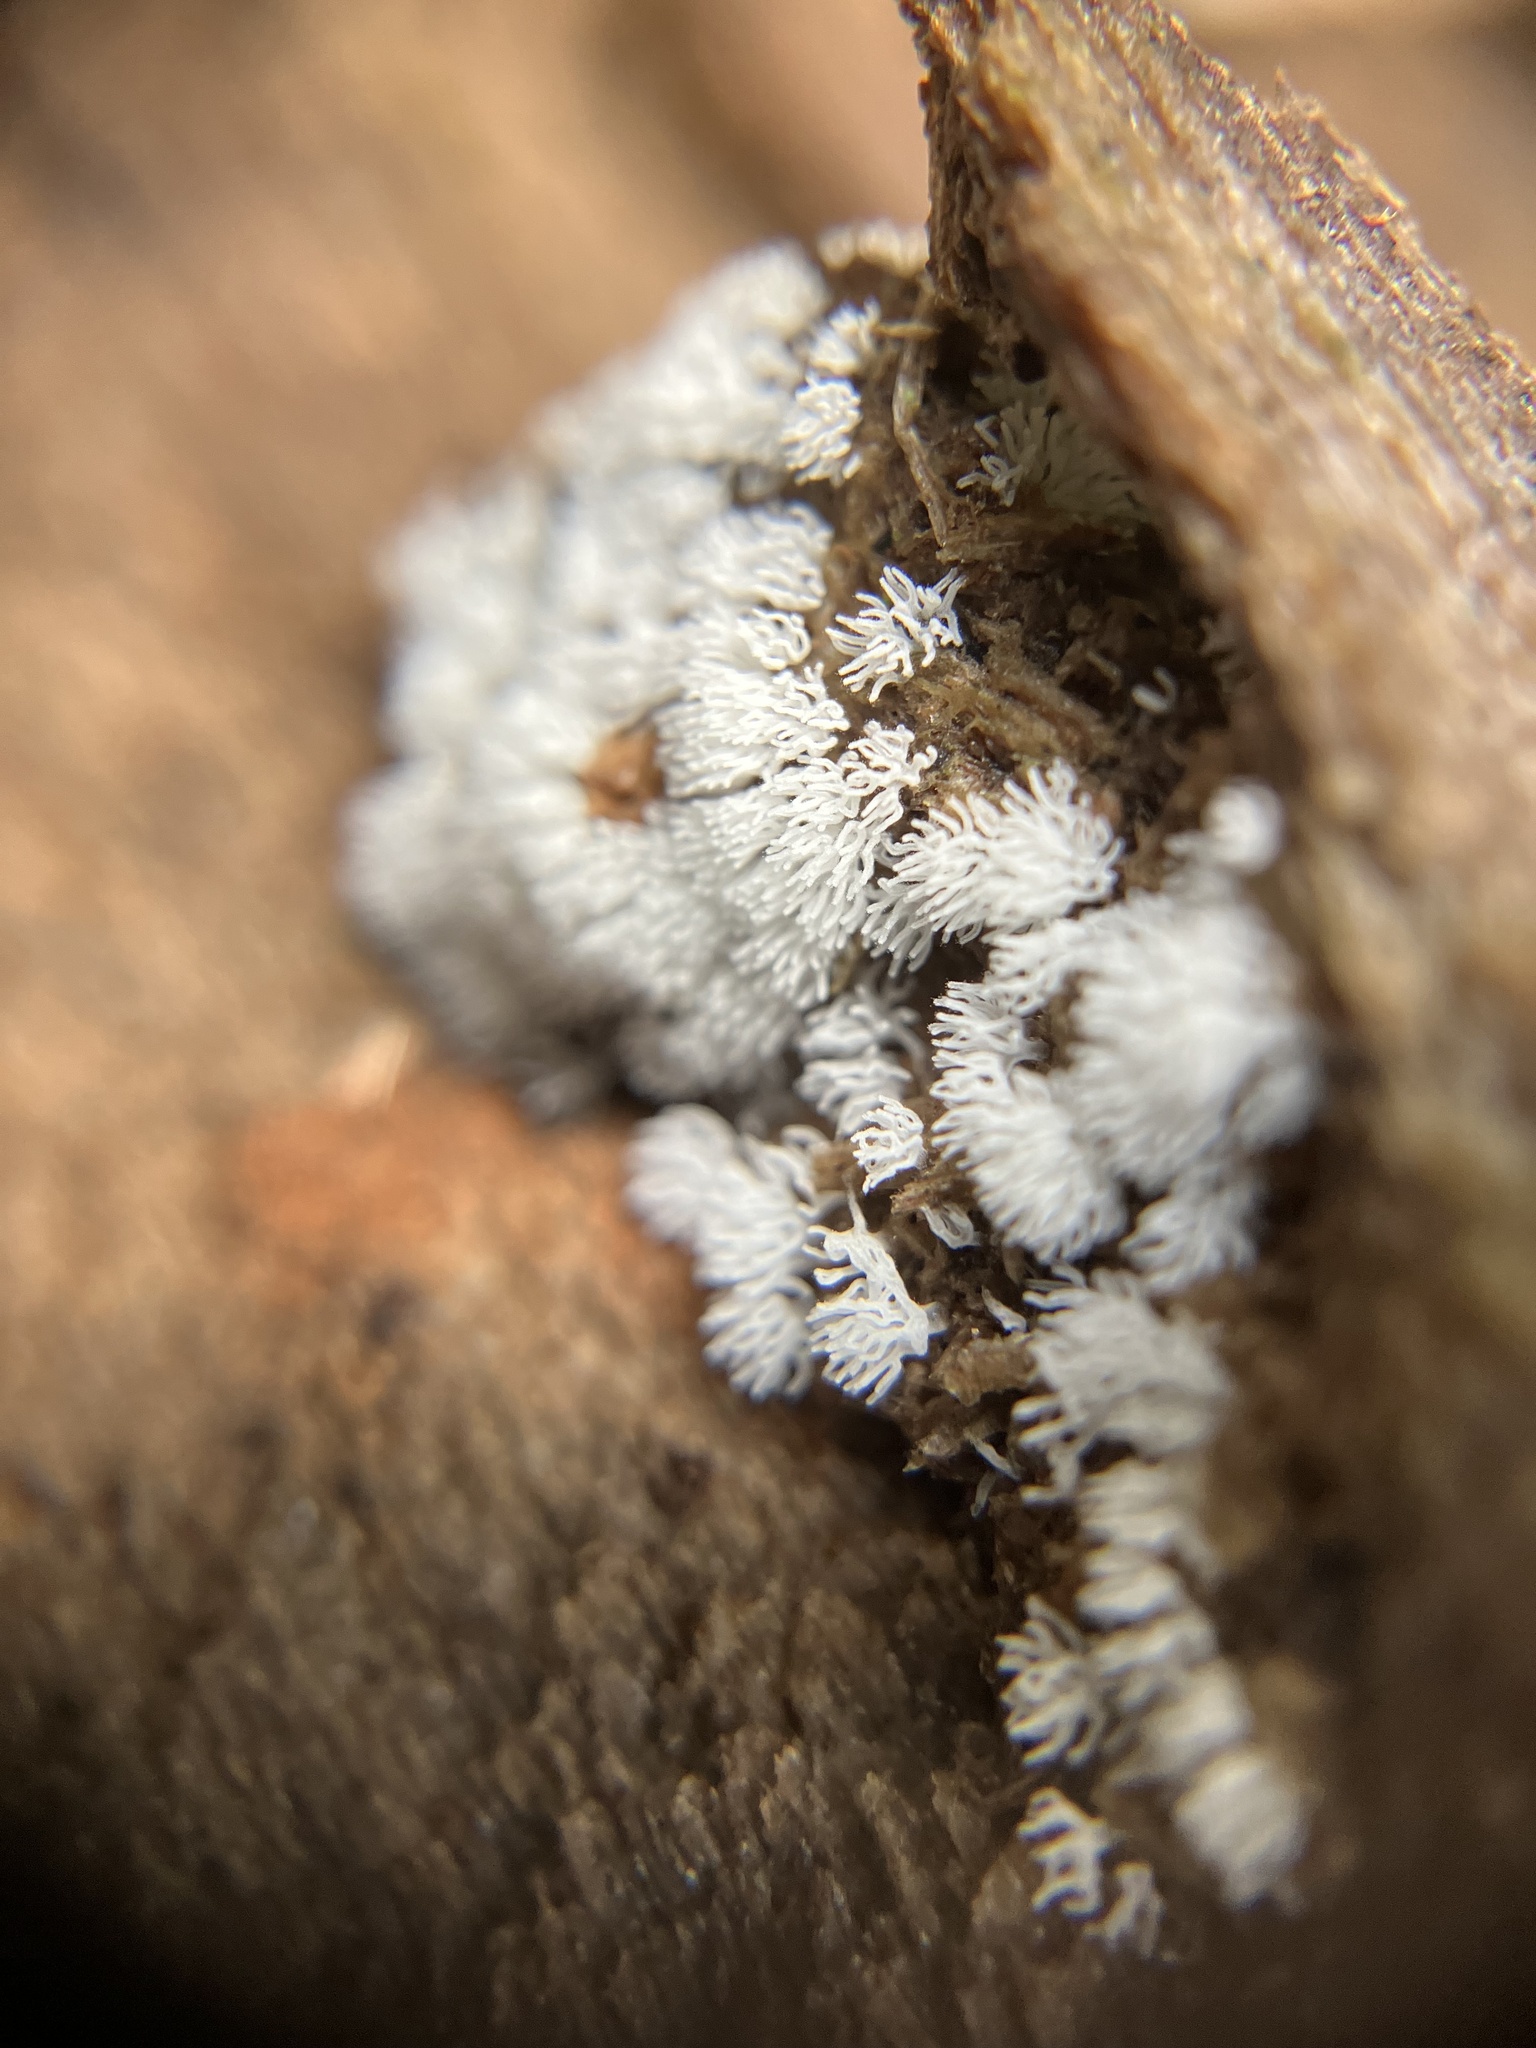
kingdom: Protozoa
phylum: Mycetozoa
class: Protosteliomycetes
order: Ceratiomyxales
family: Ceratiomyxaceae
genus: Ceratiomyxa
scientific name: Ceratiomyxa fruticulosa
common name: Honeycomb coral slime mold
